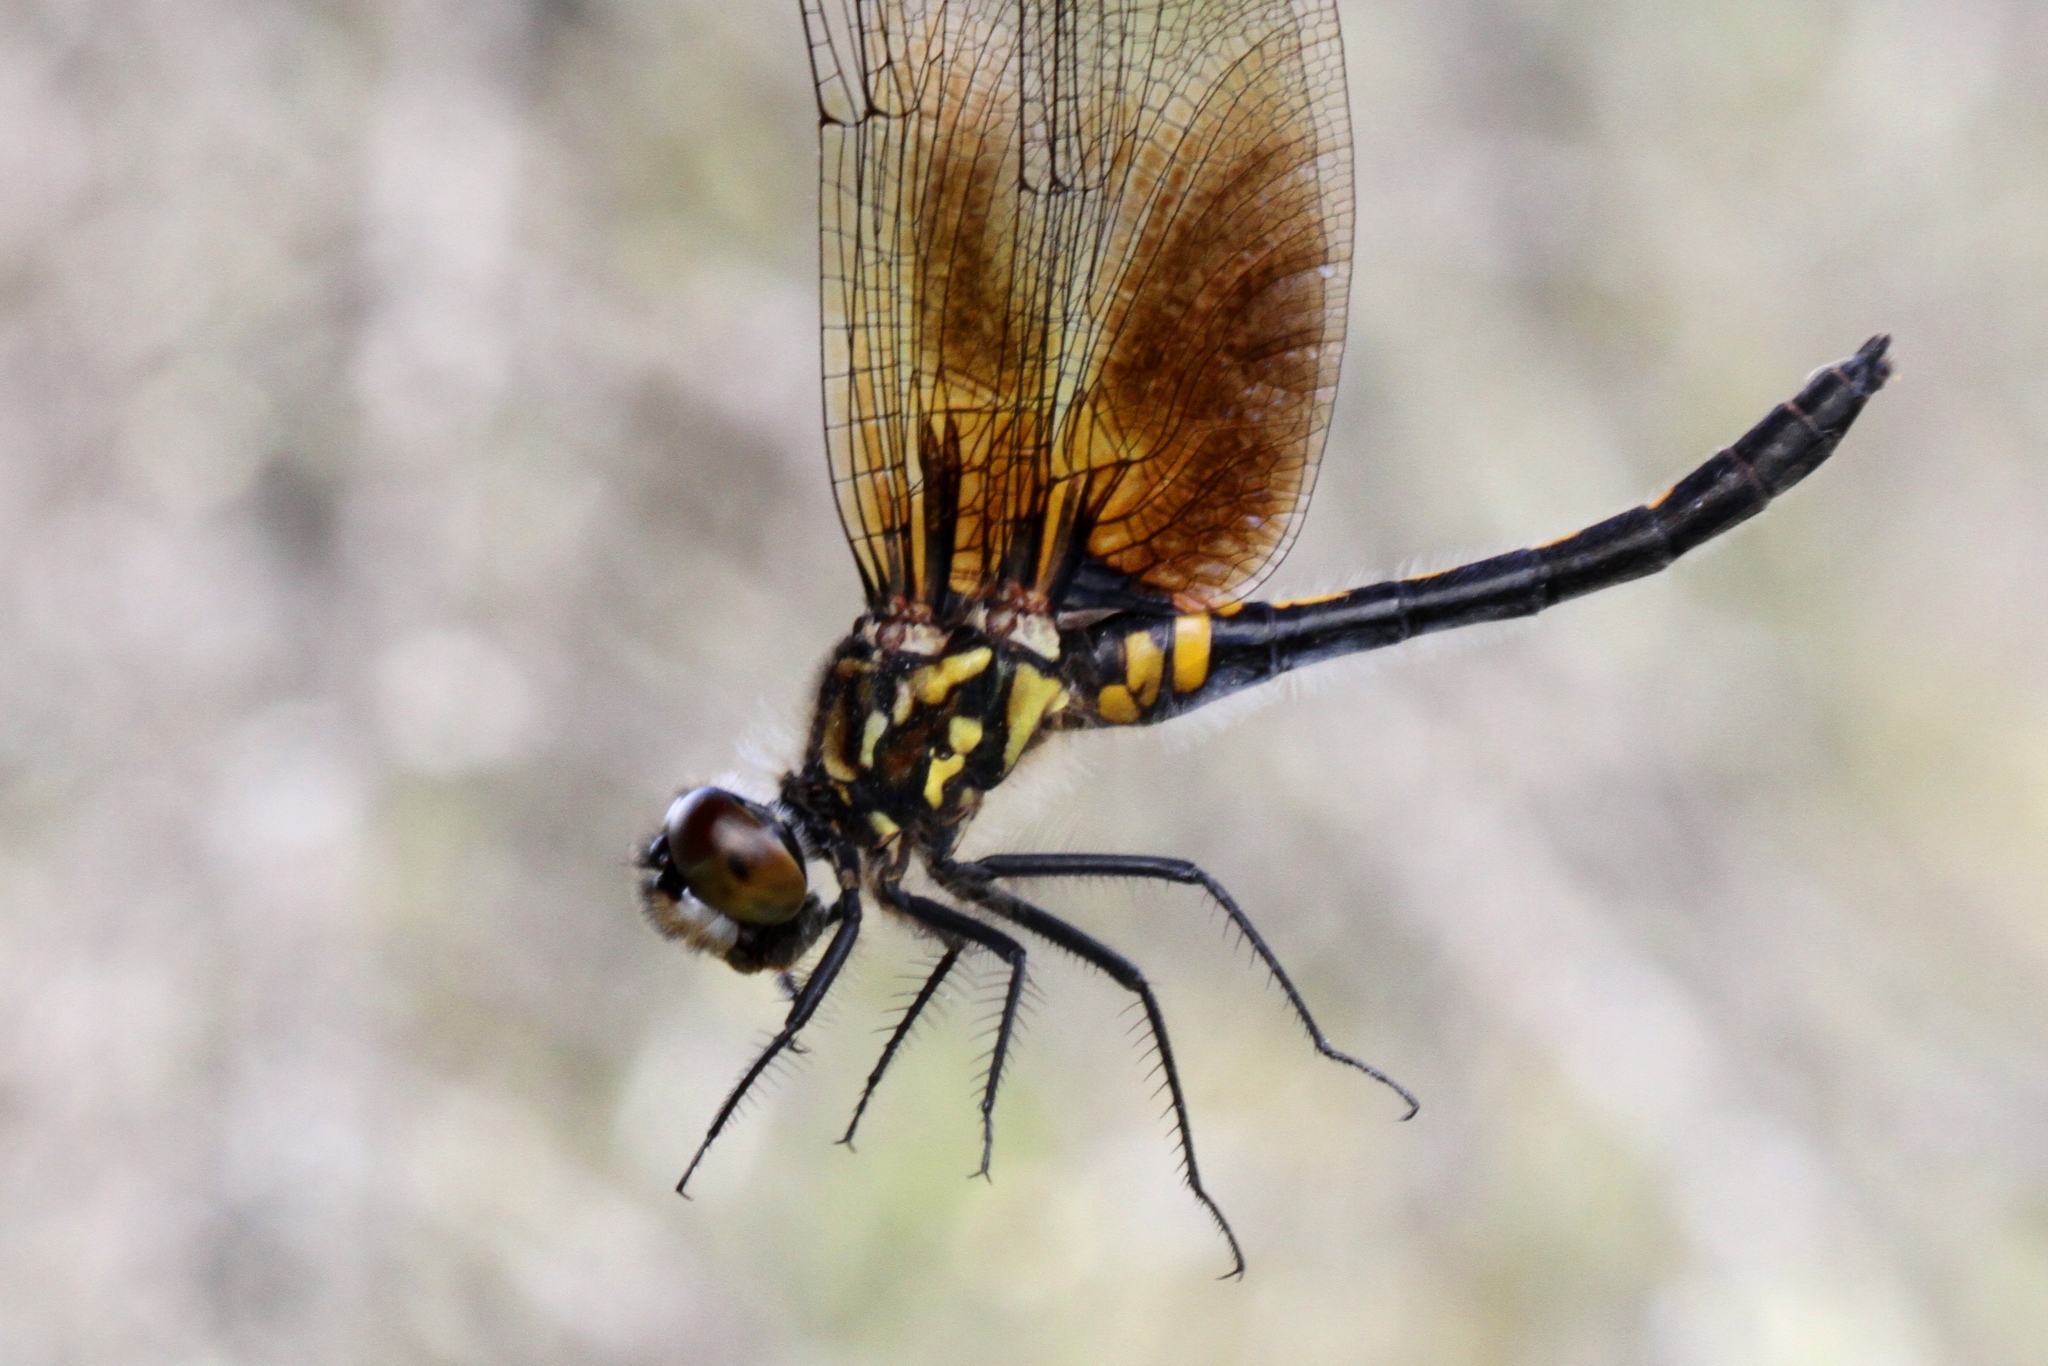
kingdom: Animalia
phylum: Arthropoda
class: Insecta
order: Odonata
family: Libellulidae
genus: Leucorrhinia
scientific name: Leucorrhinia intacta
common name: Dot-tailed whiteface
